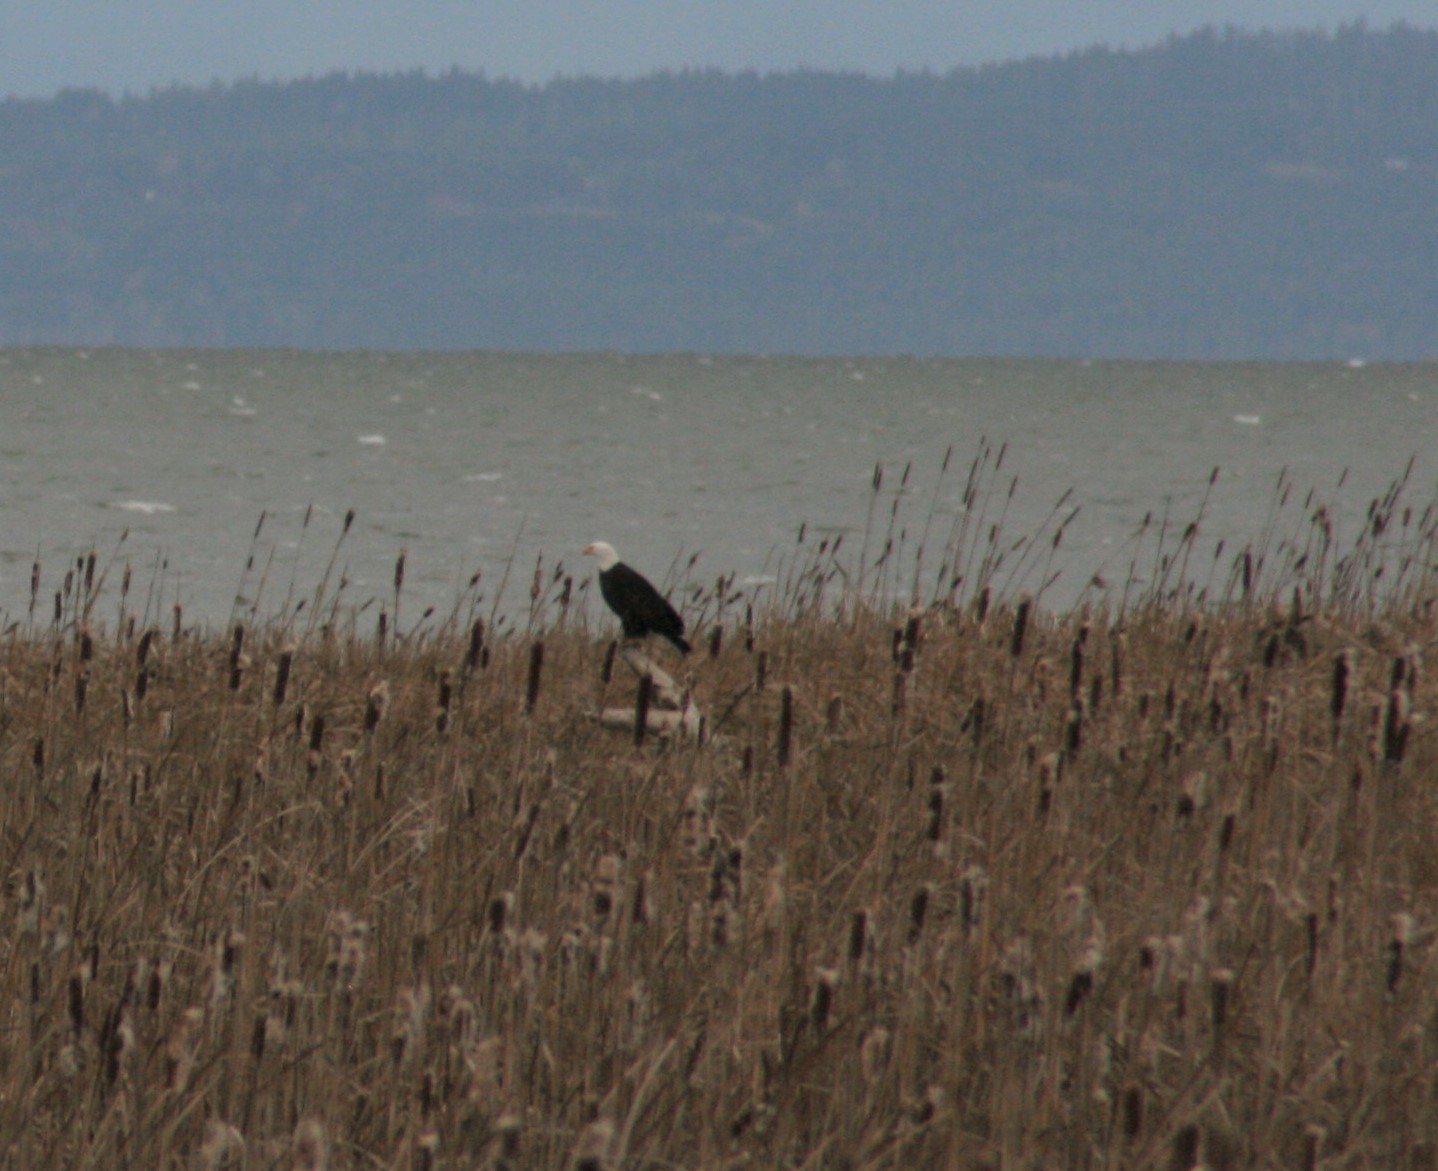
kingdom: Animalia
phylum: Chordata
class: Aves
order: Accipitriformes
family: Accipitridae
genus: Haliaeetus
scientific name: Haliaeetus leucocephalus
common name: Bald eagle
